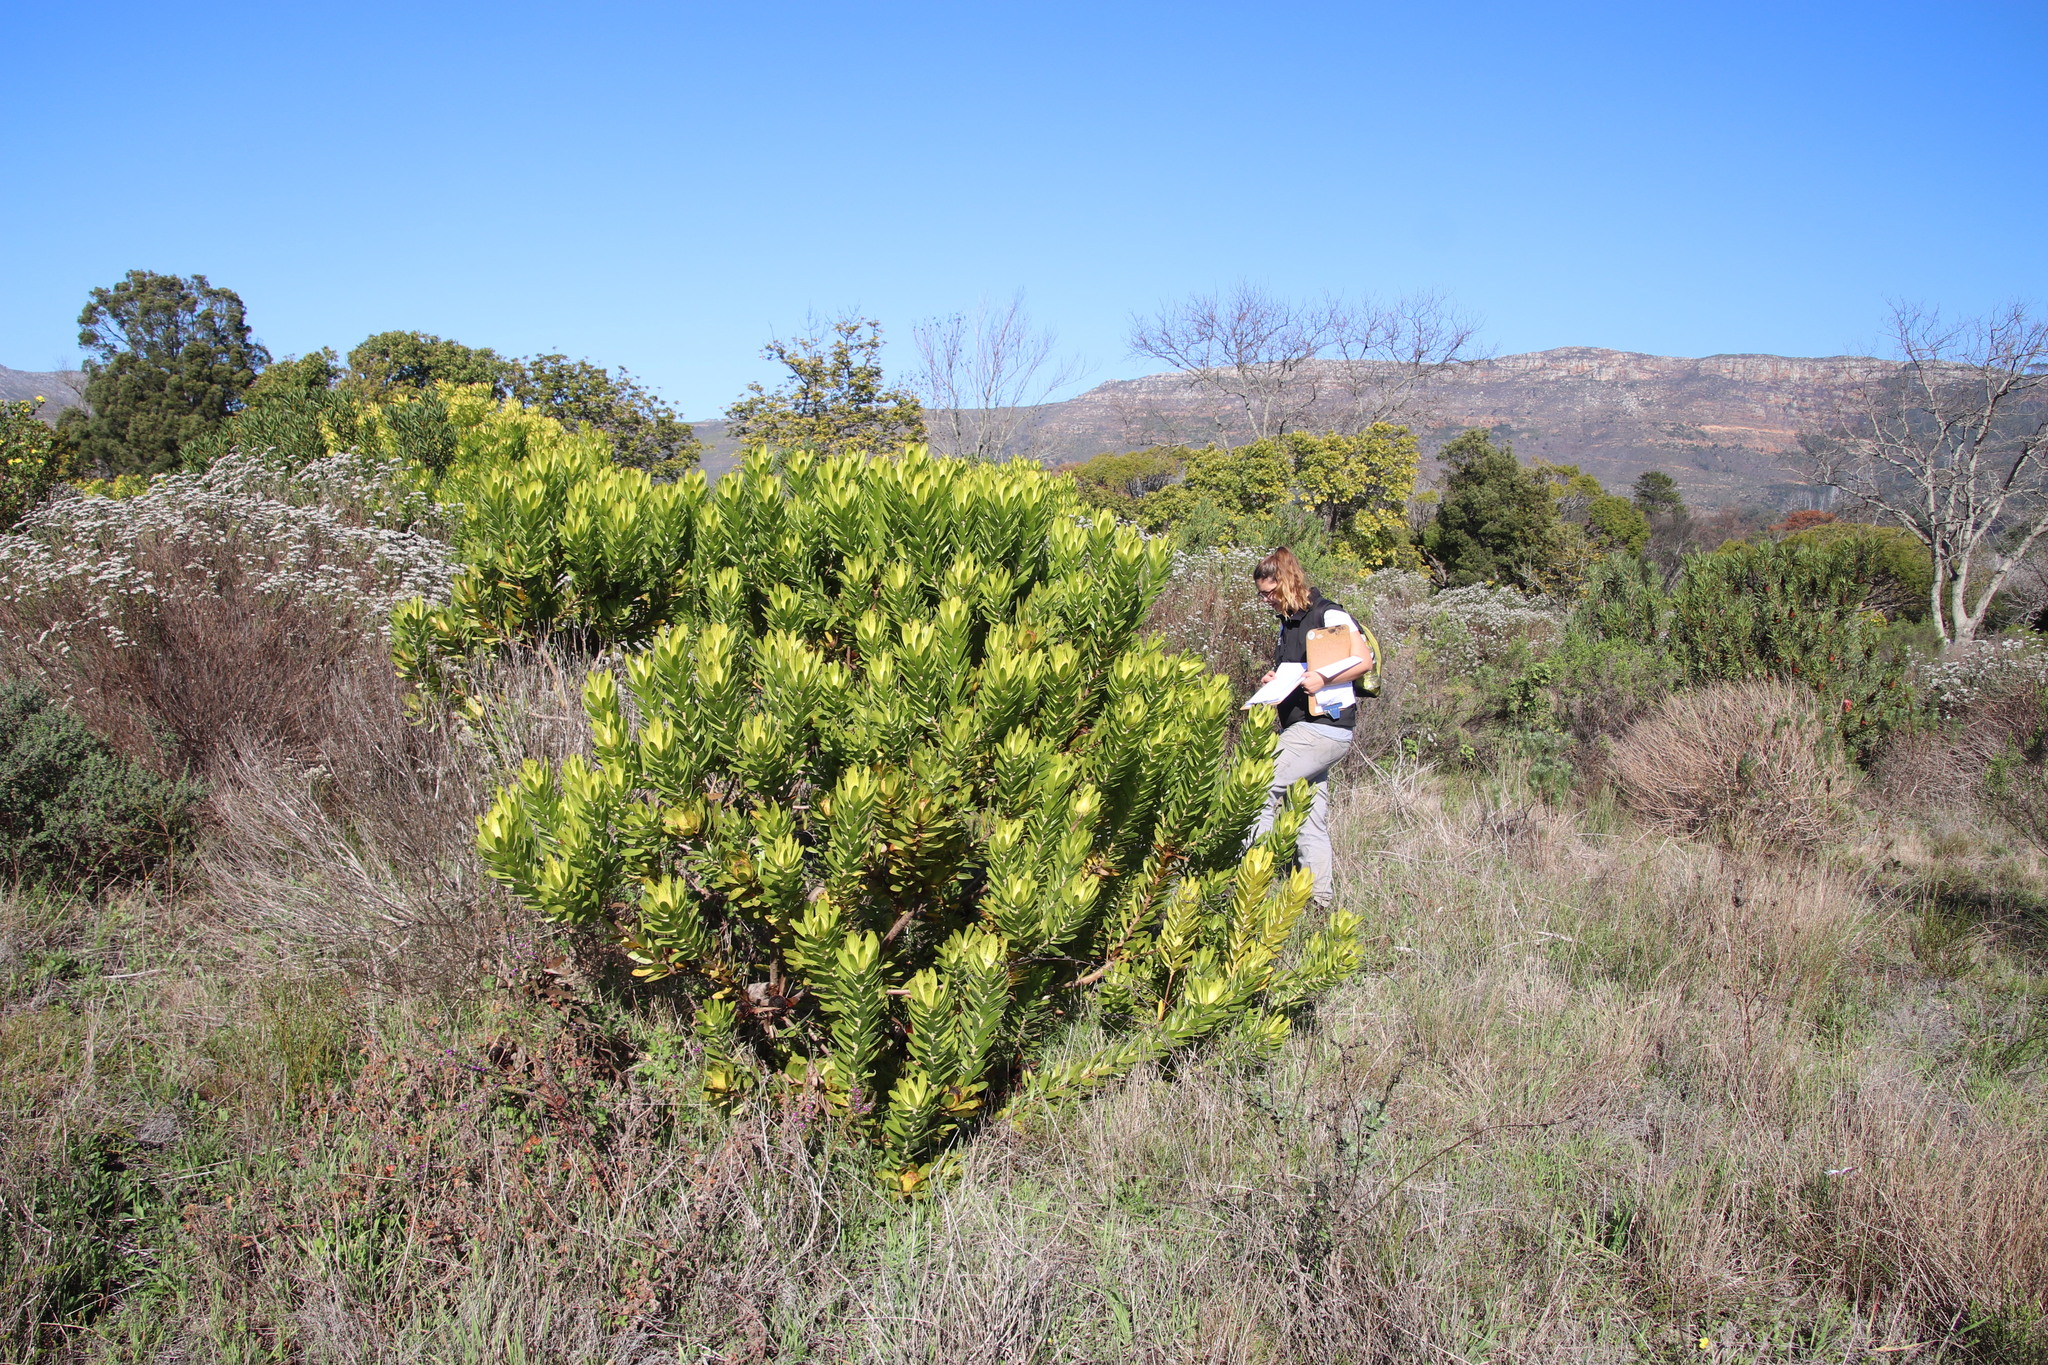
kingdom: Plantae
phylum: Tracheophyta
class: Magnoliopsida
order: Proteales
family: Proteaceae
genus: Leucadendron
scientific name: Leucadendron laureolum
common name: Golden sunshinebush
